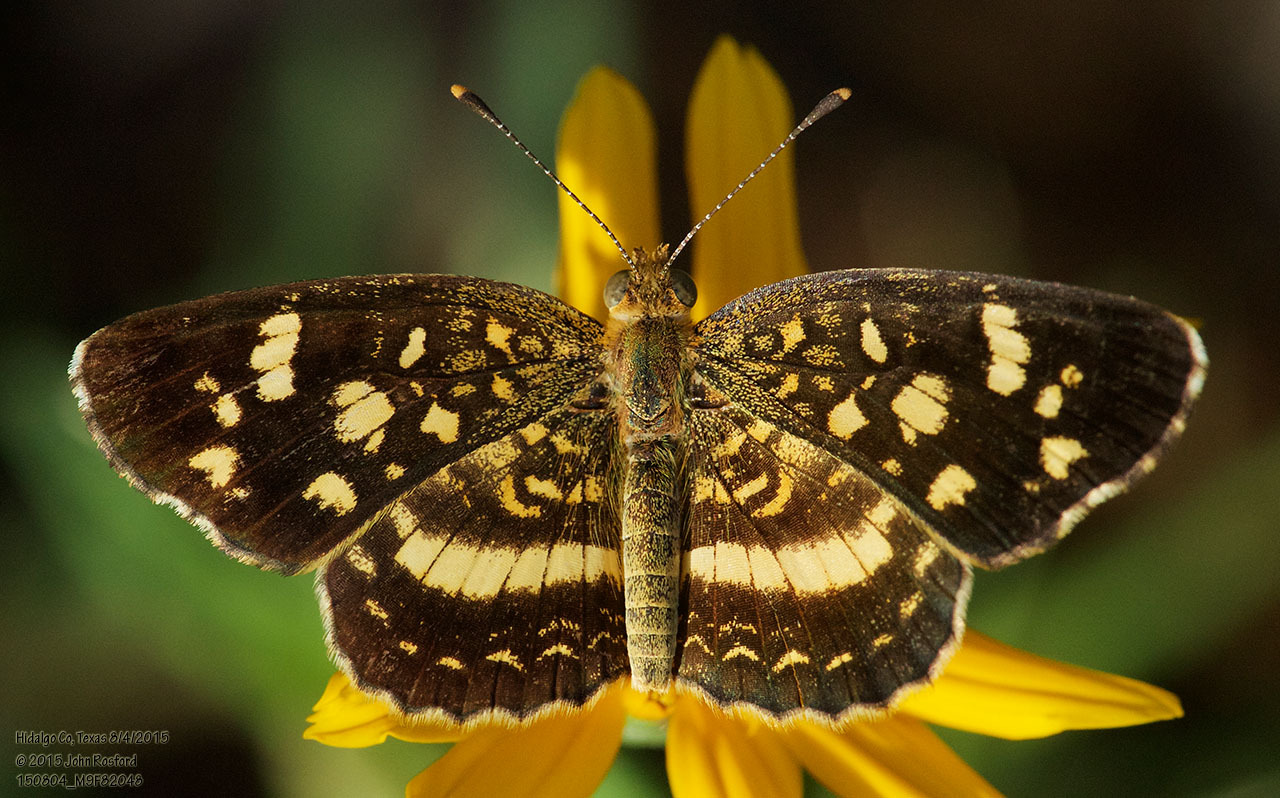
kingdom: Animalia
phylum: Arthropoda
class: Insecta
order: Lepidoptera
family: Nymphalidae
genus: Anthanassa
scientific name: Anthanassa tulcis
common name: Pale-banded crescent
